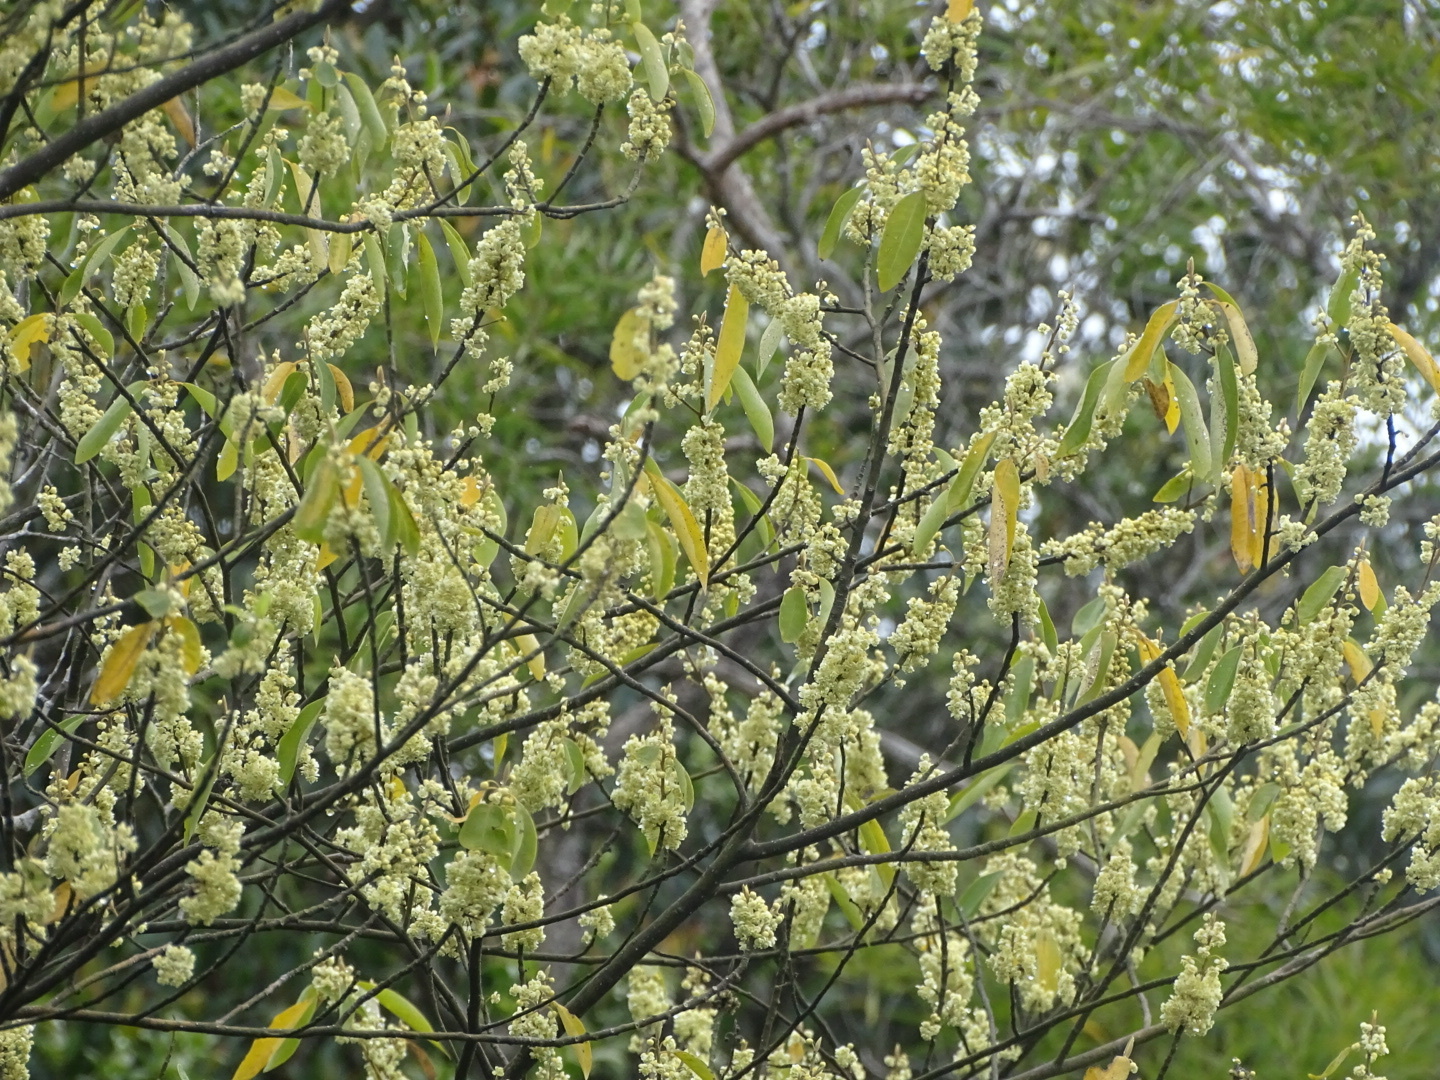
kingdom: Plantae
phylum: Tracheophyta
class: Magnoliopsida
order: Laurales
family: Lauraceae
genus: Litsea
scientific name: Litsea cubeba
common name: Mountain-pepper
